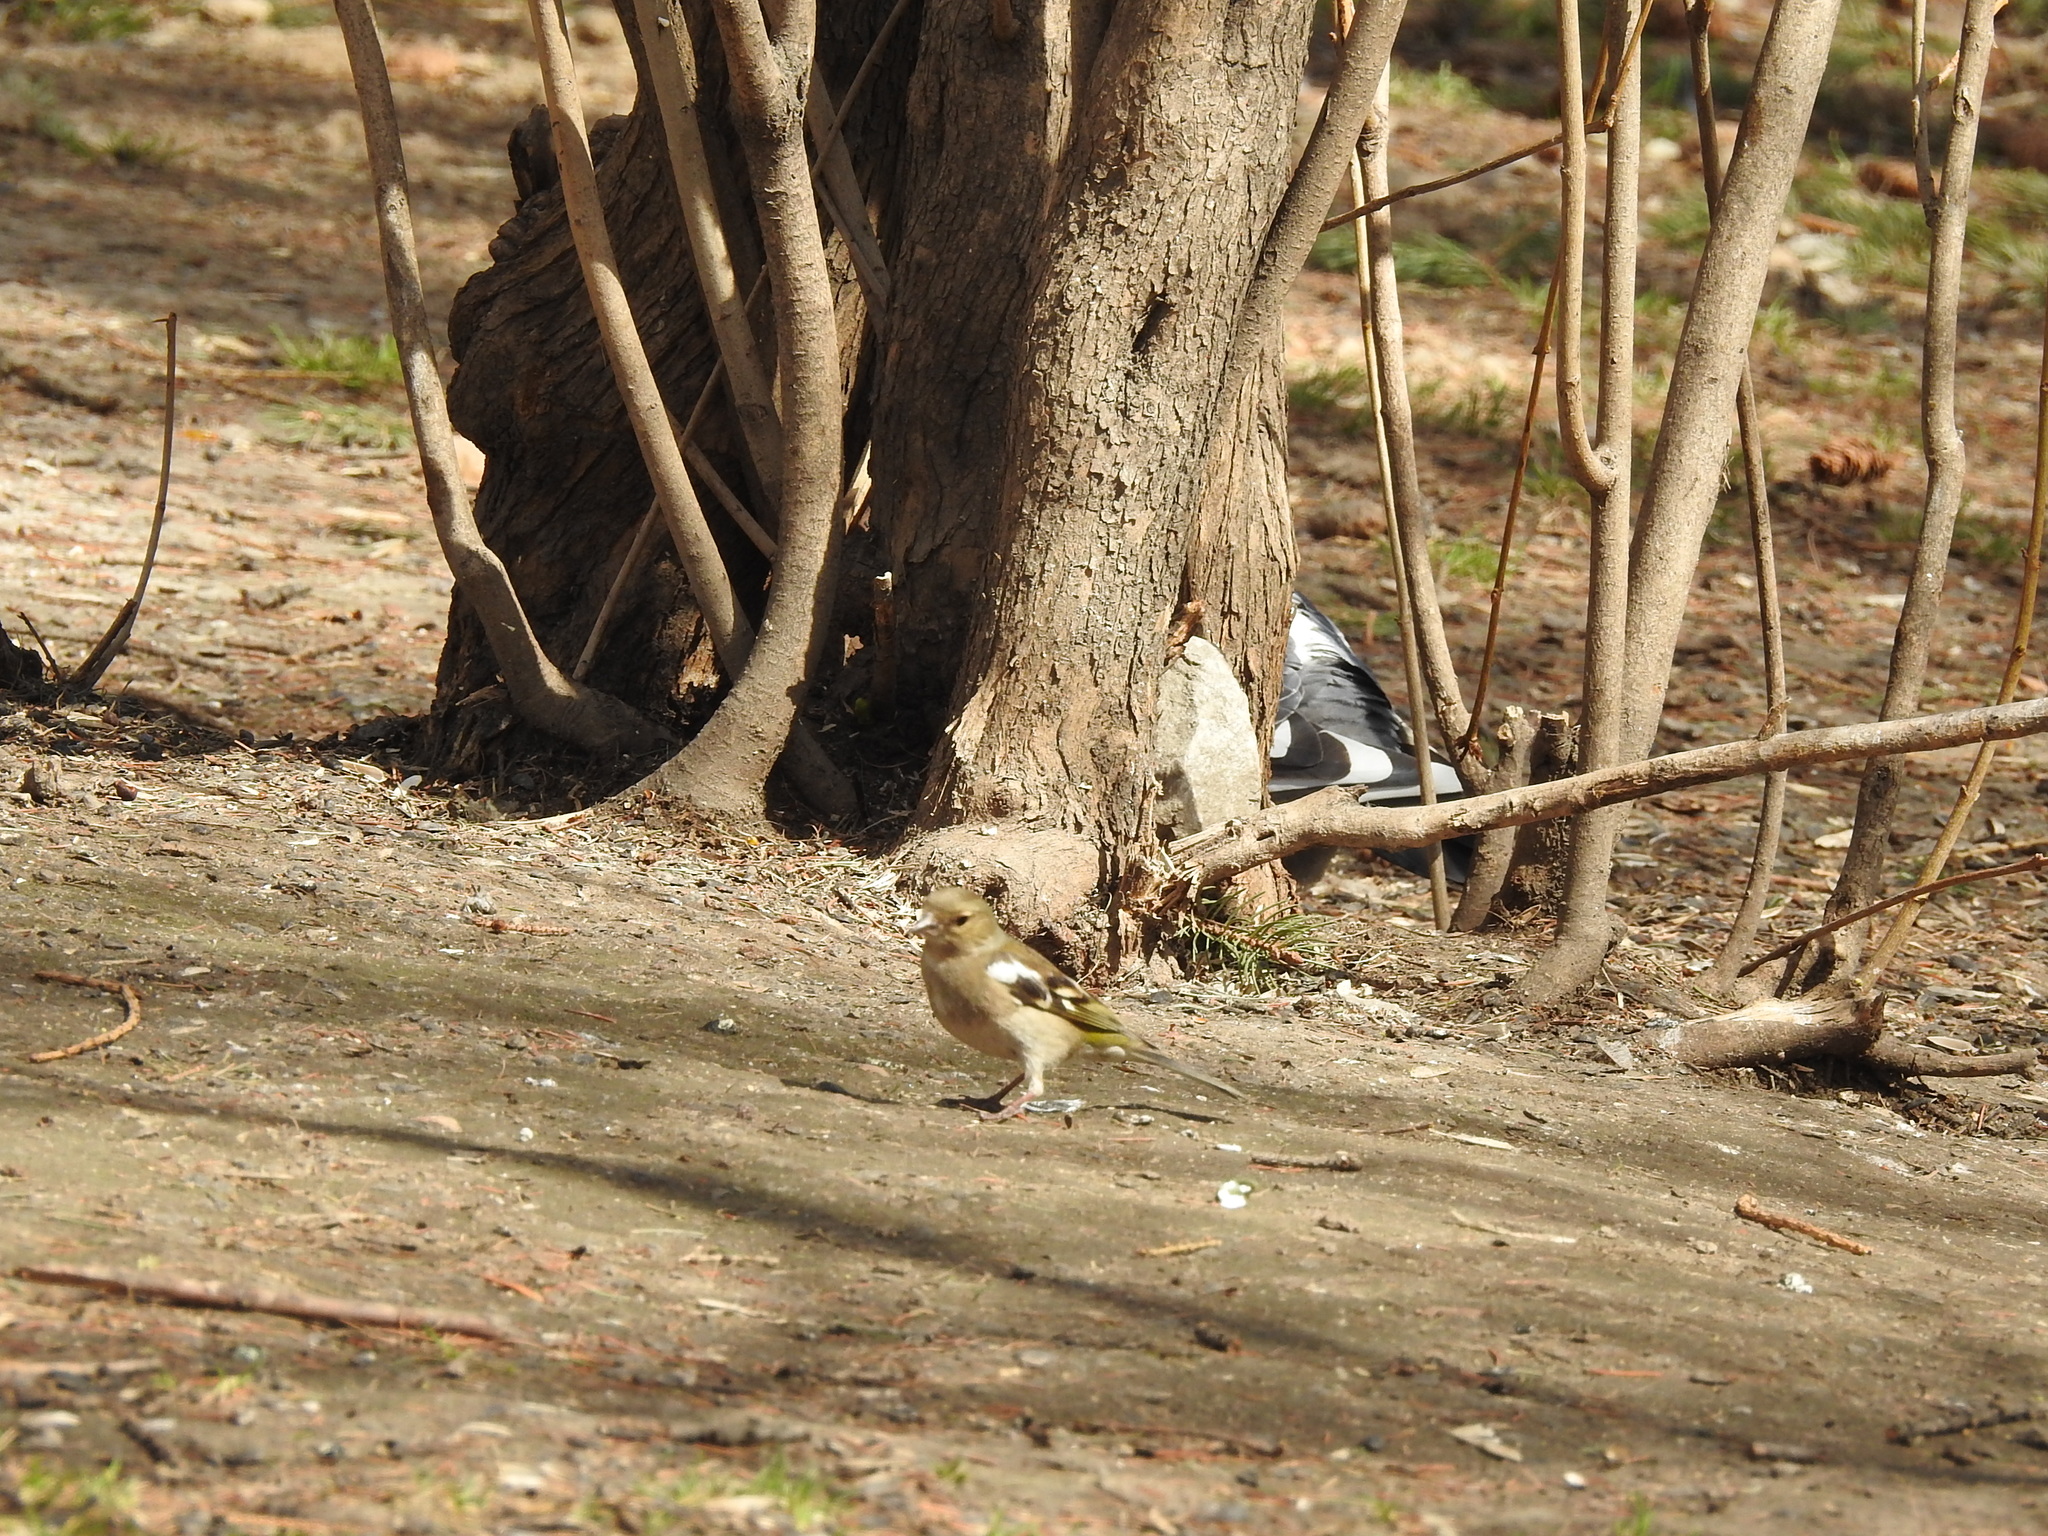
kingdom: Animalia
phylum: Chordata
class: Aves
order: Passeriformes
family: Fringillidae
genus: Fringilla
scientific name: Fringilla coelebs
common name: Common chaffinch
